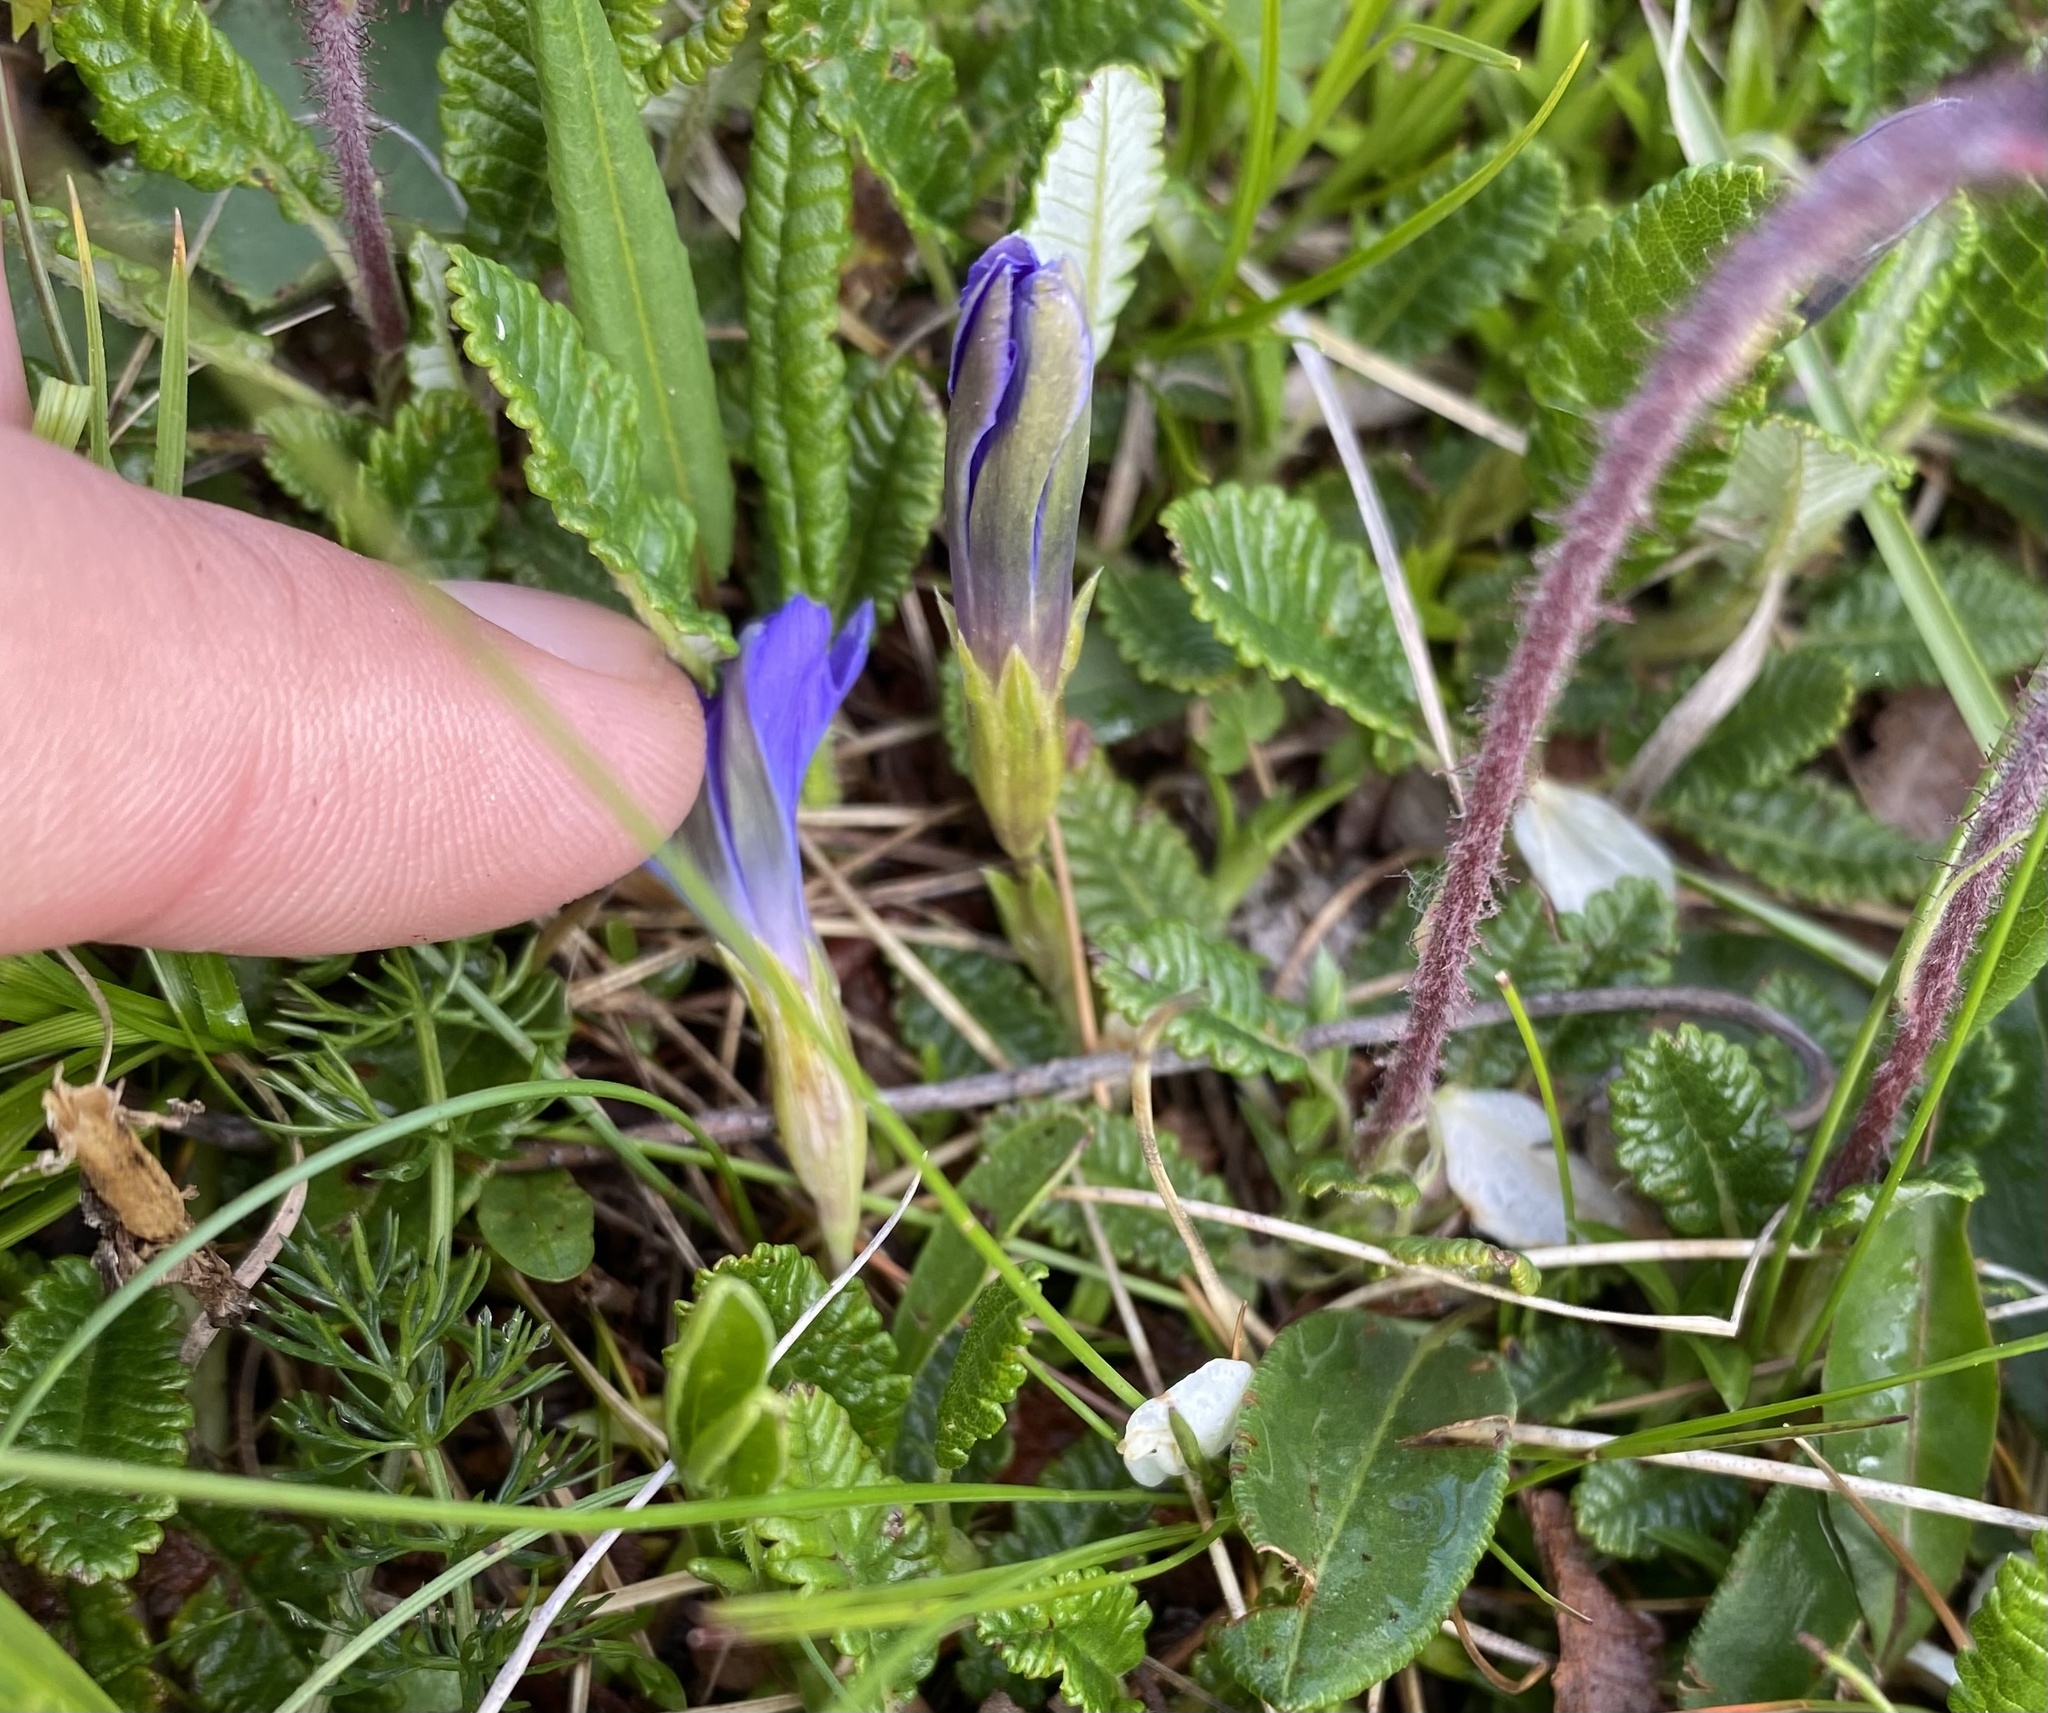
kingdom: Plantae
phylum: Tracheophyta
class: Magnoliopsida
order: Gentianales
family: Gentianaceae
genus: Gentiana
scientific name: Gentiana dshimilensis
